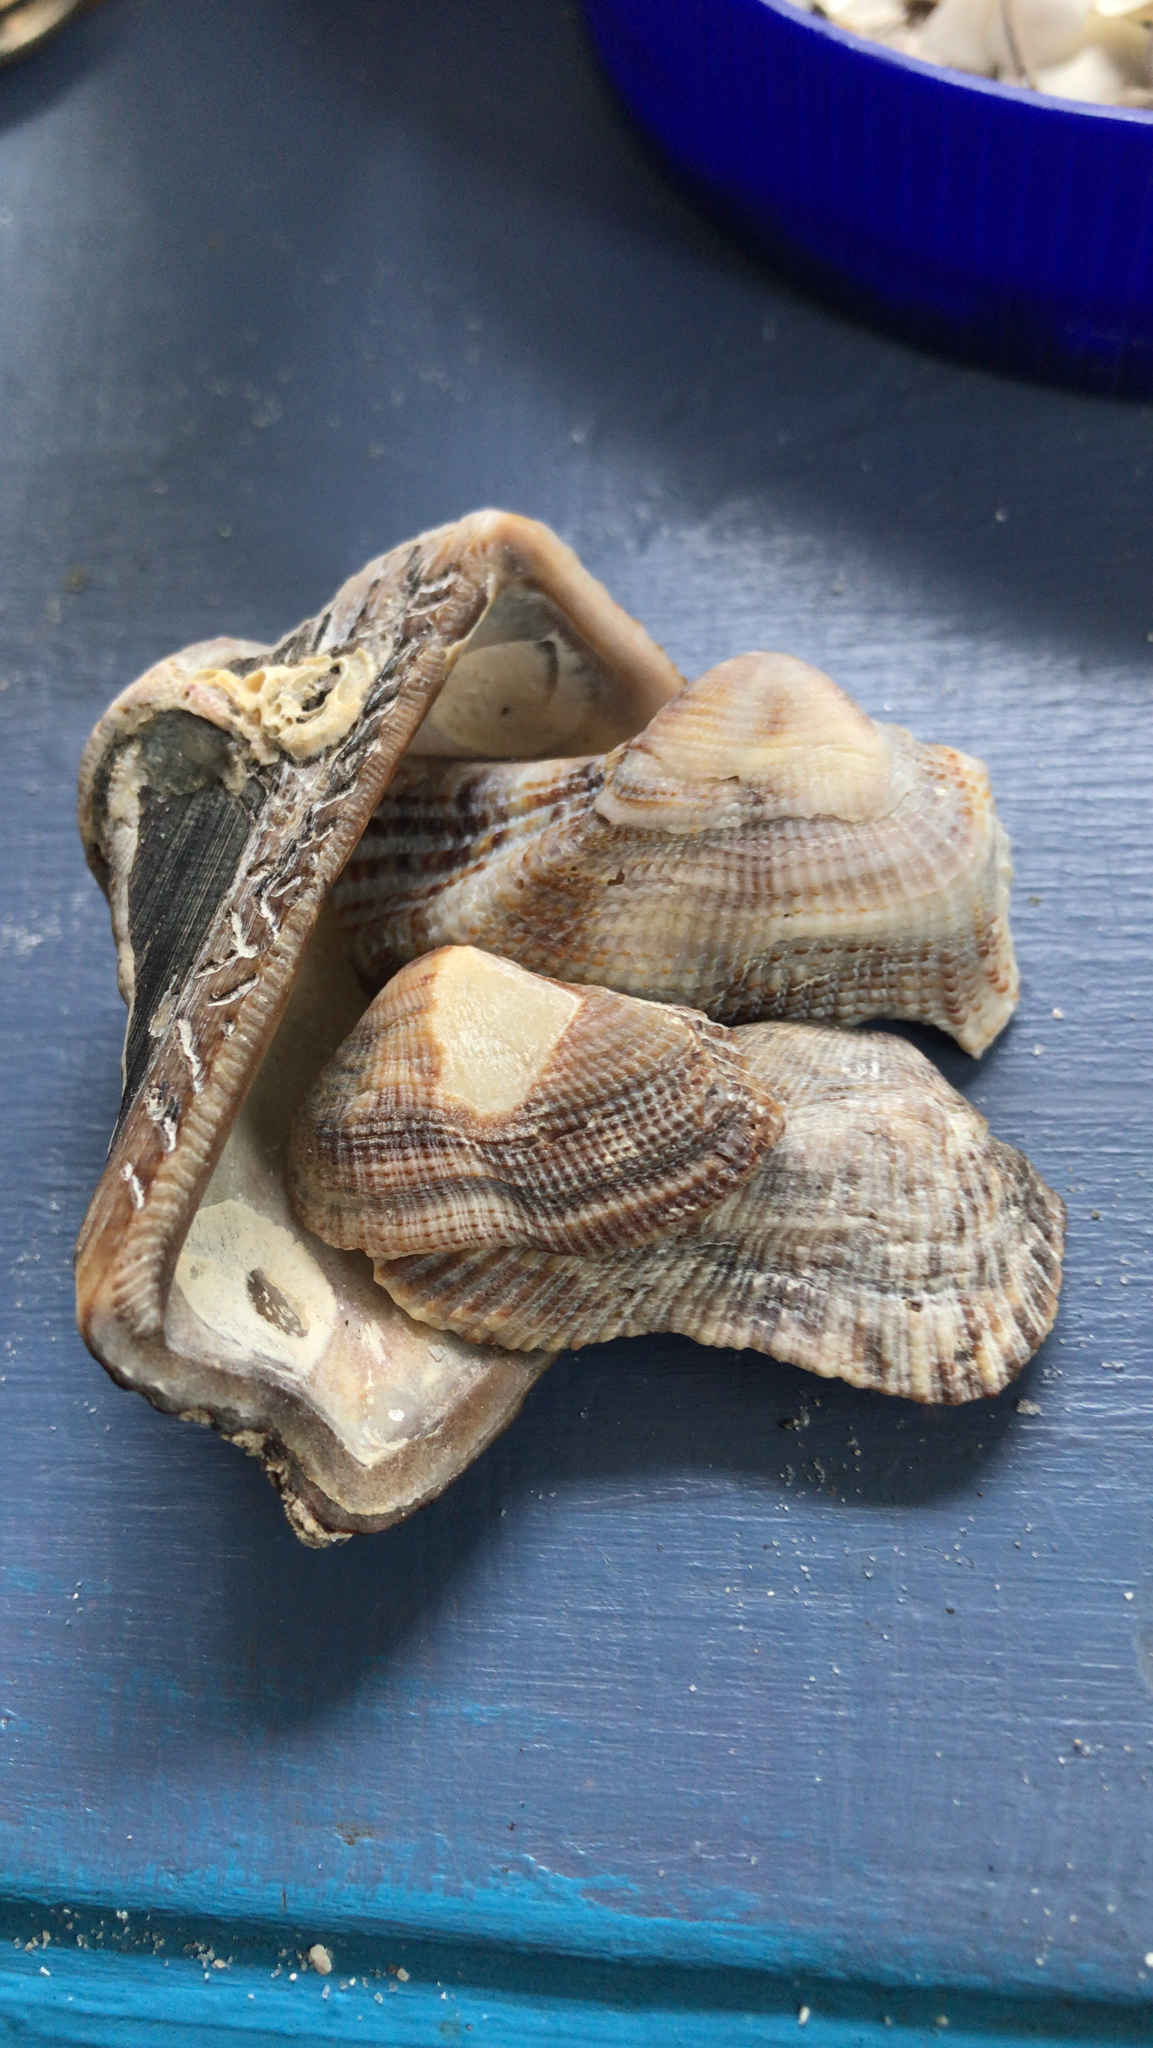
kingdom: Animalia
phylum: Mollusca
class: Bivalvia
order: Arcida
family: Arcidae
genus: Lamarcka
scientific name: Lamarcka imbricata
